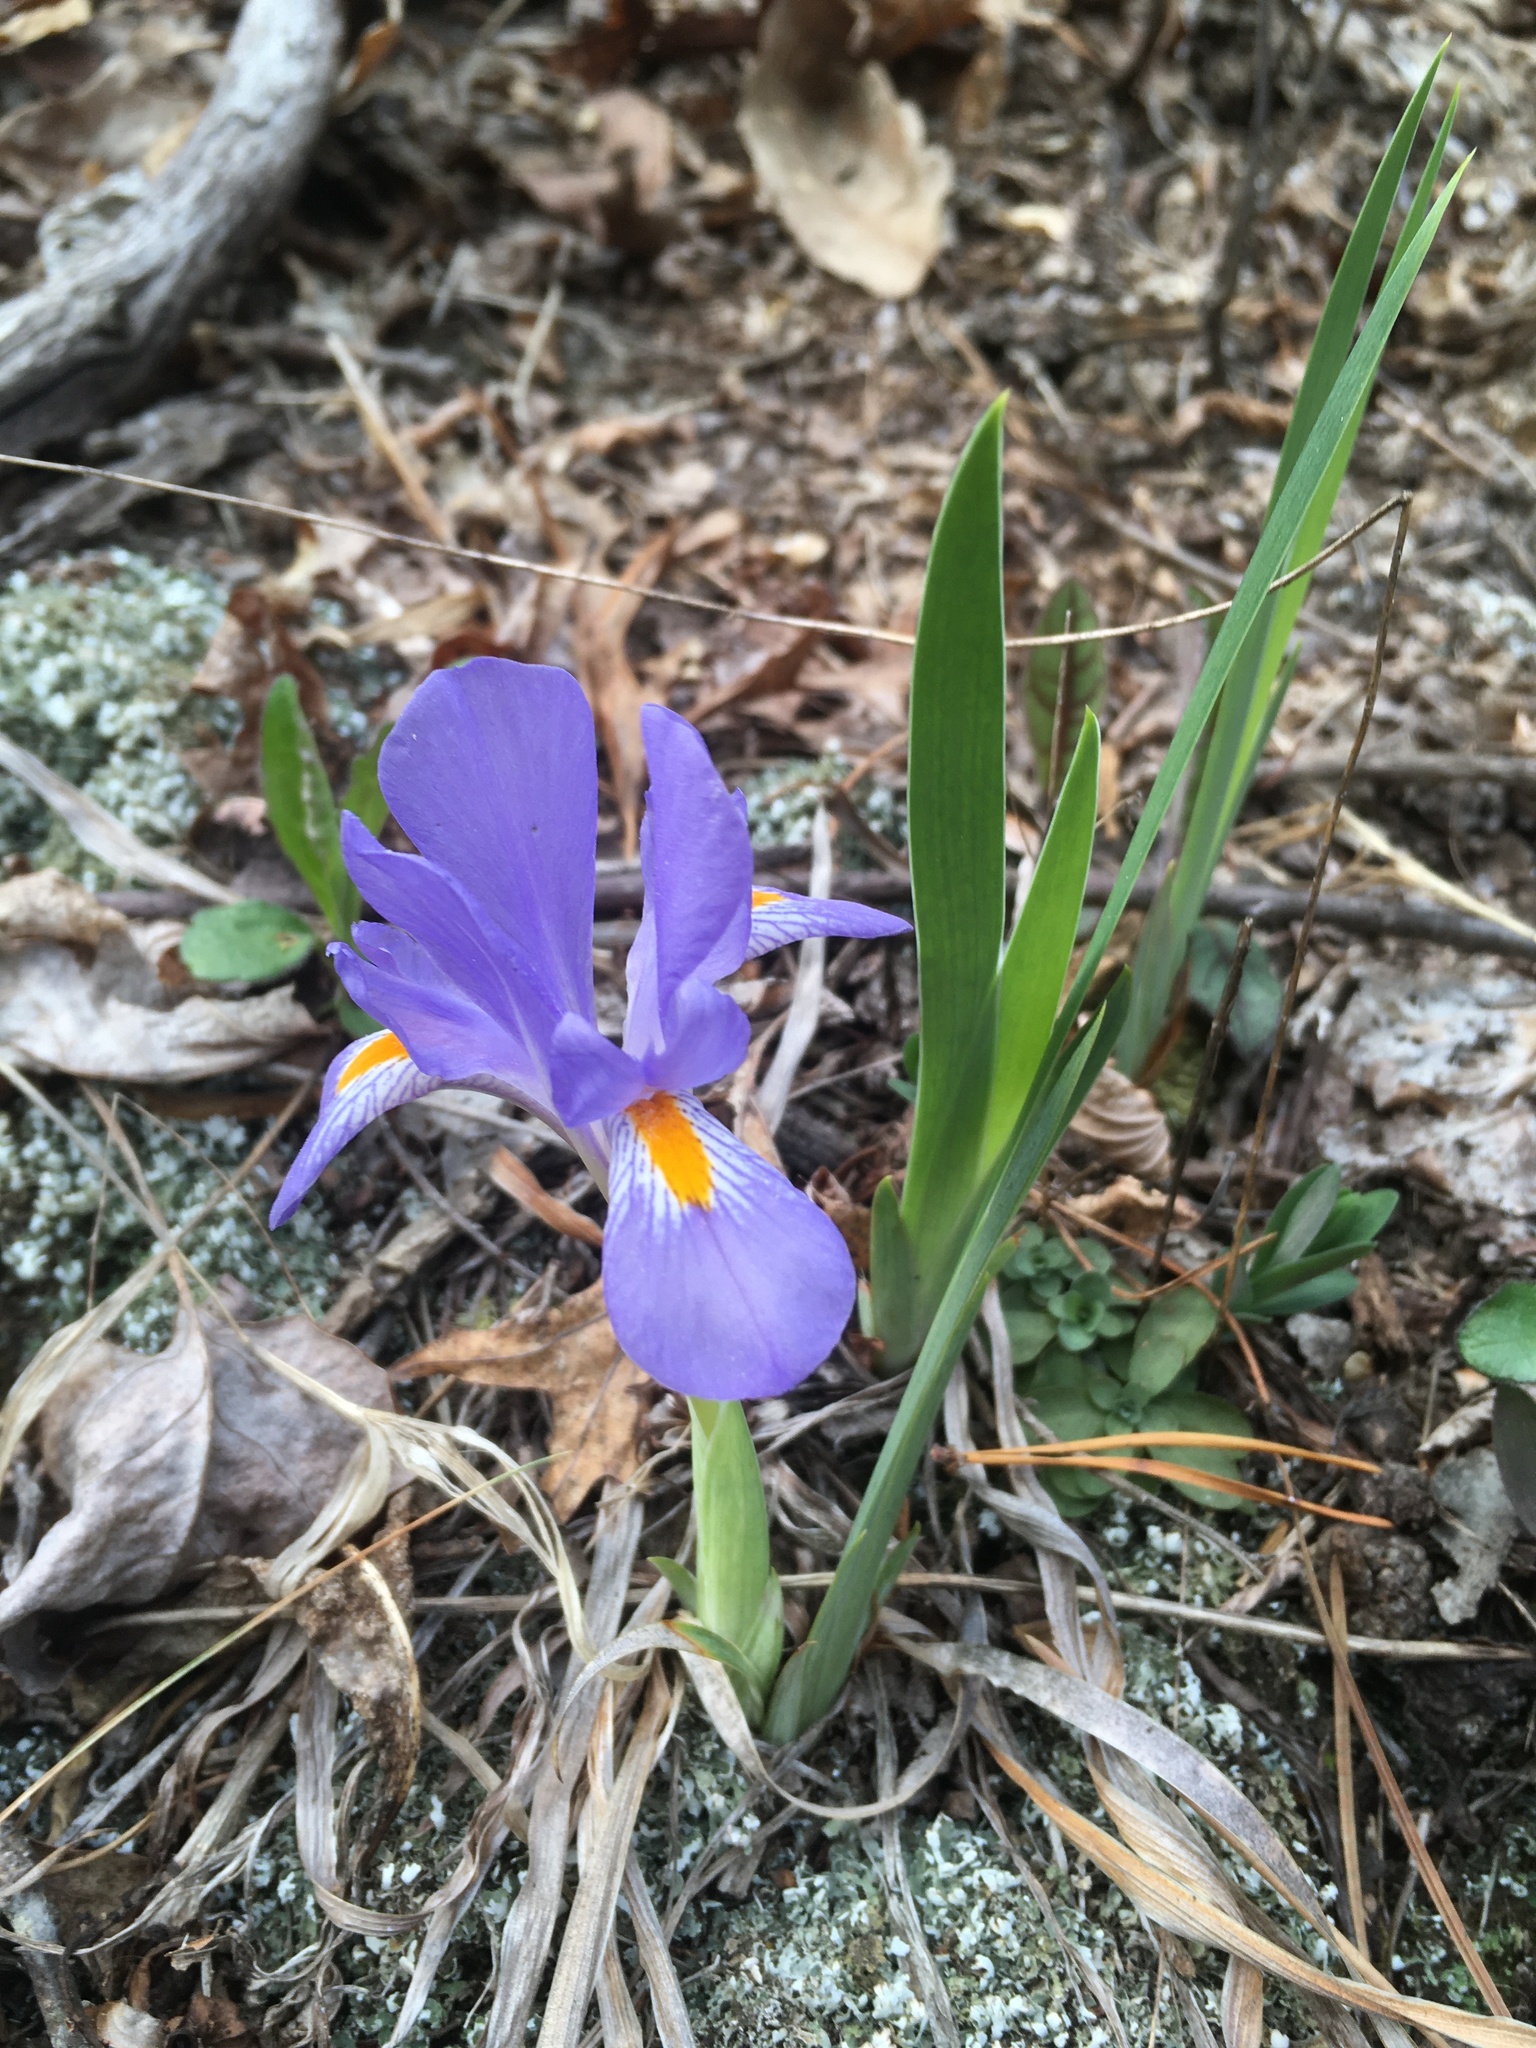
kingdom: Plantae
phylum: Tracheophyta
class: Liliopsida
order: Asparagales
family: Iridaceae
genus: Iris
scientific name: Iris verna
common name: Dwarf iris
